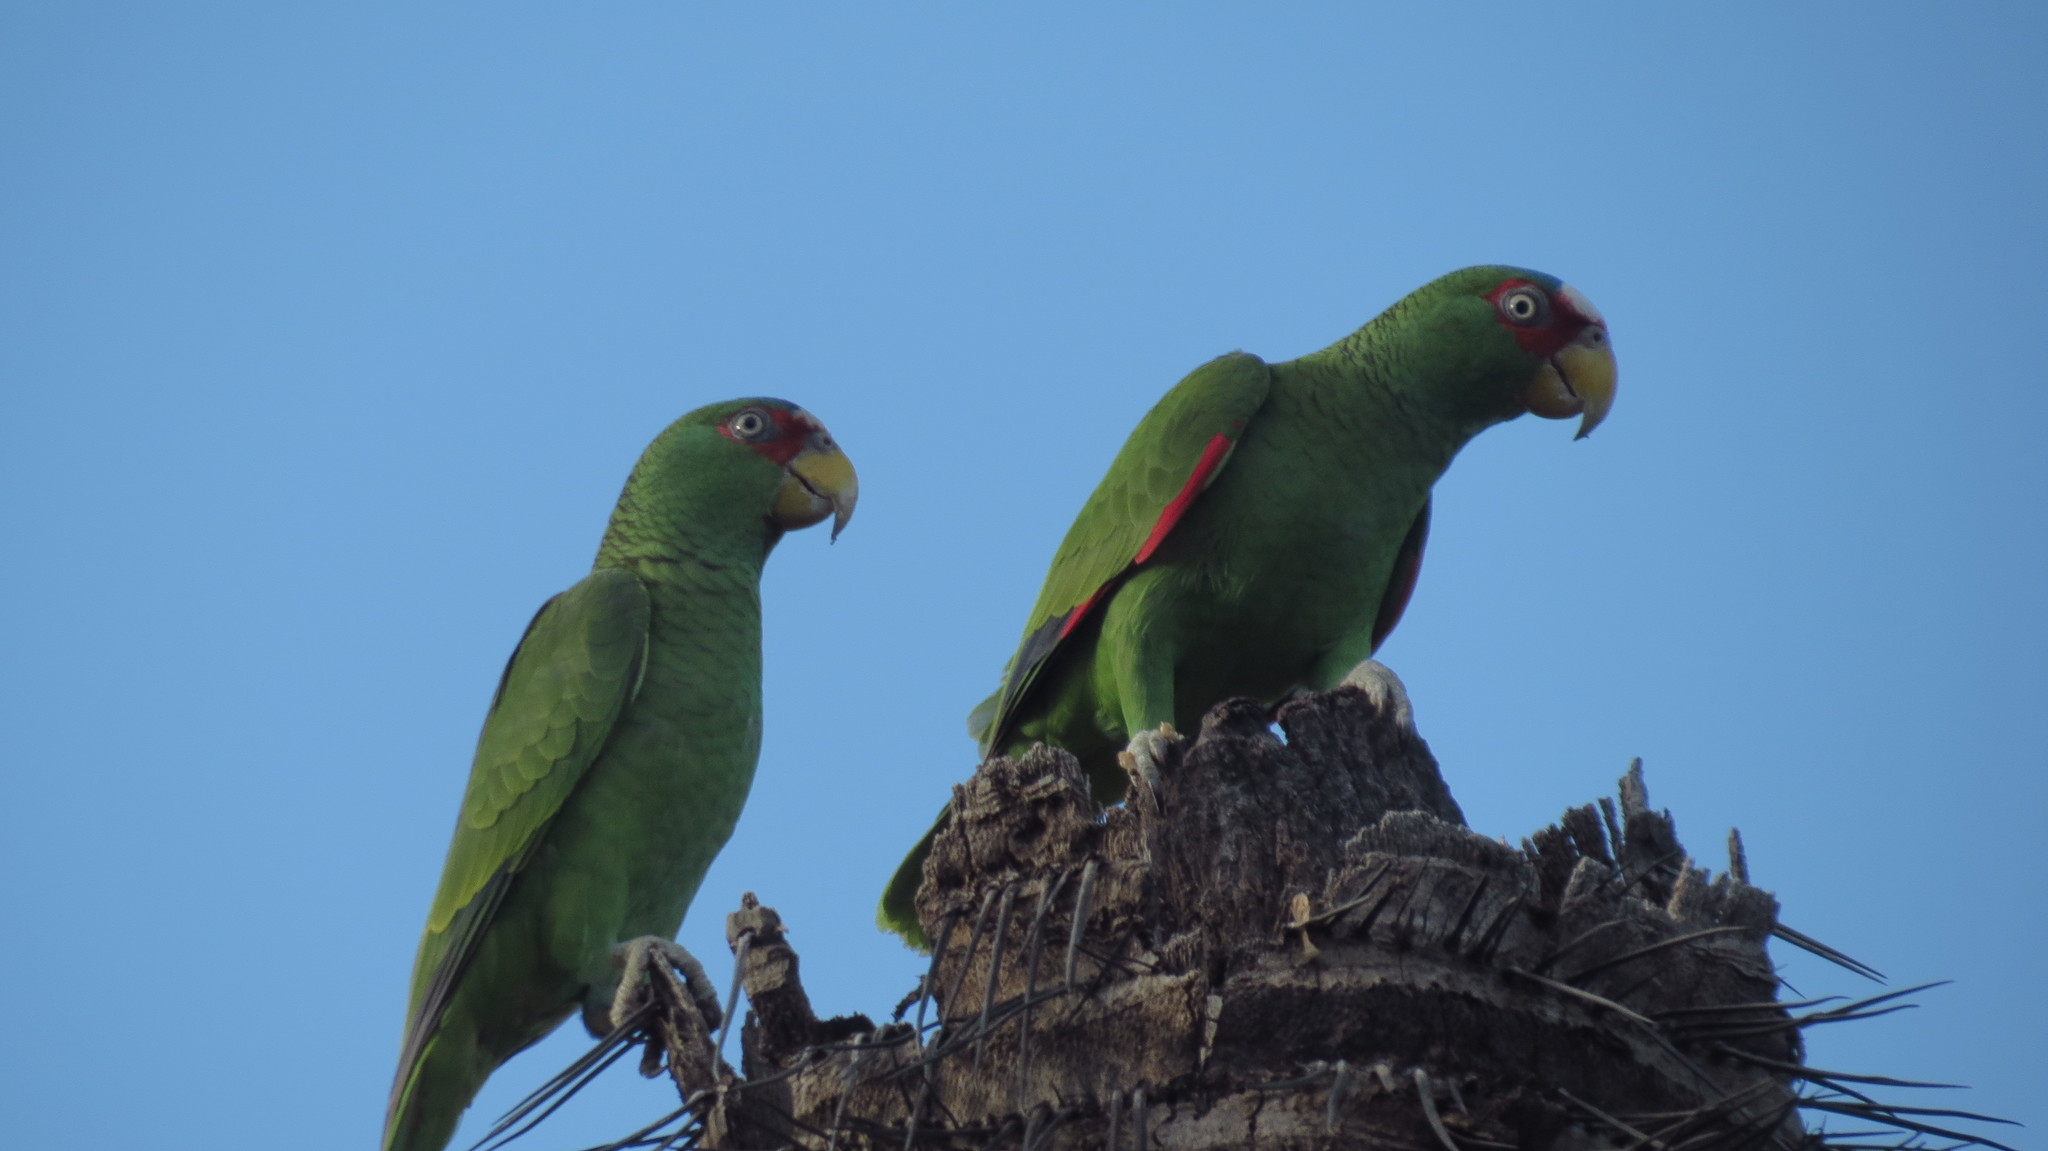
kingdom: Animalia
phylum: Chordata
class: Aves
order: Psittaciformes
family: Psittacidae
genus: Amazona
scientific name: Amazona albifrons
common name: White-fronted amazon
